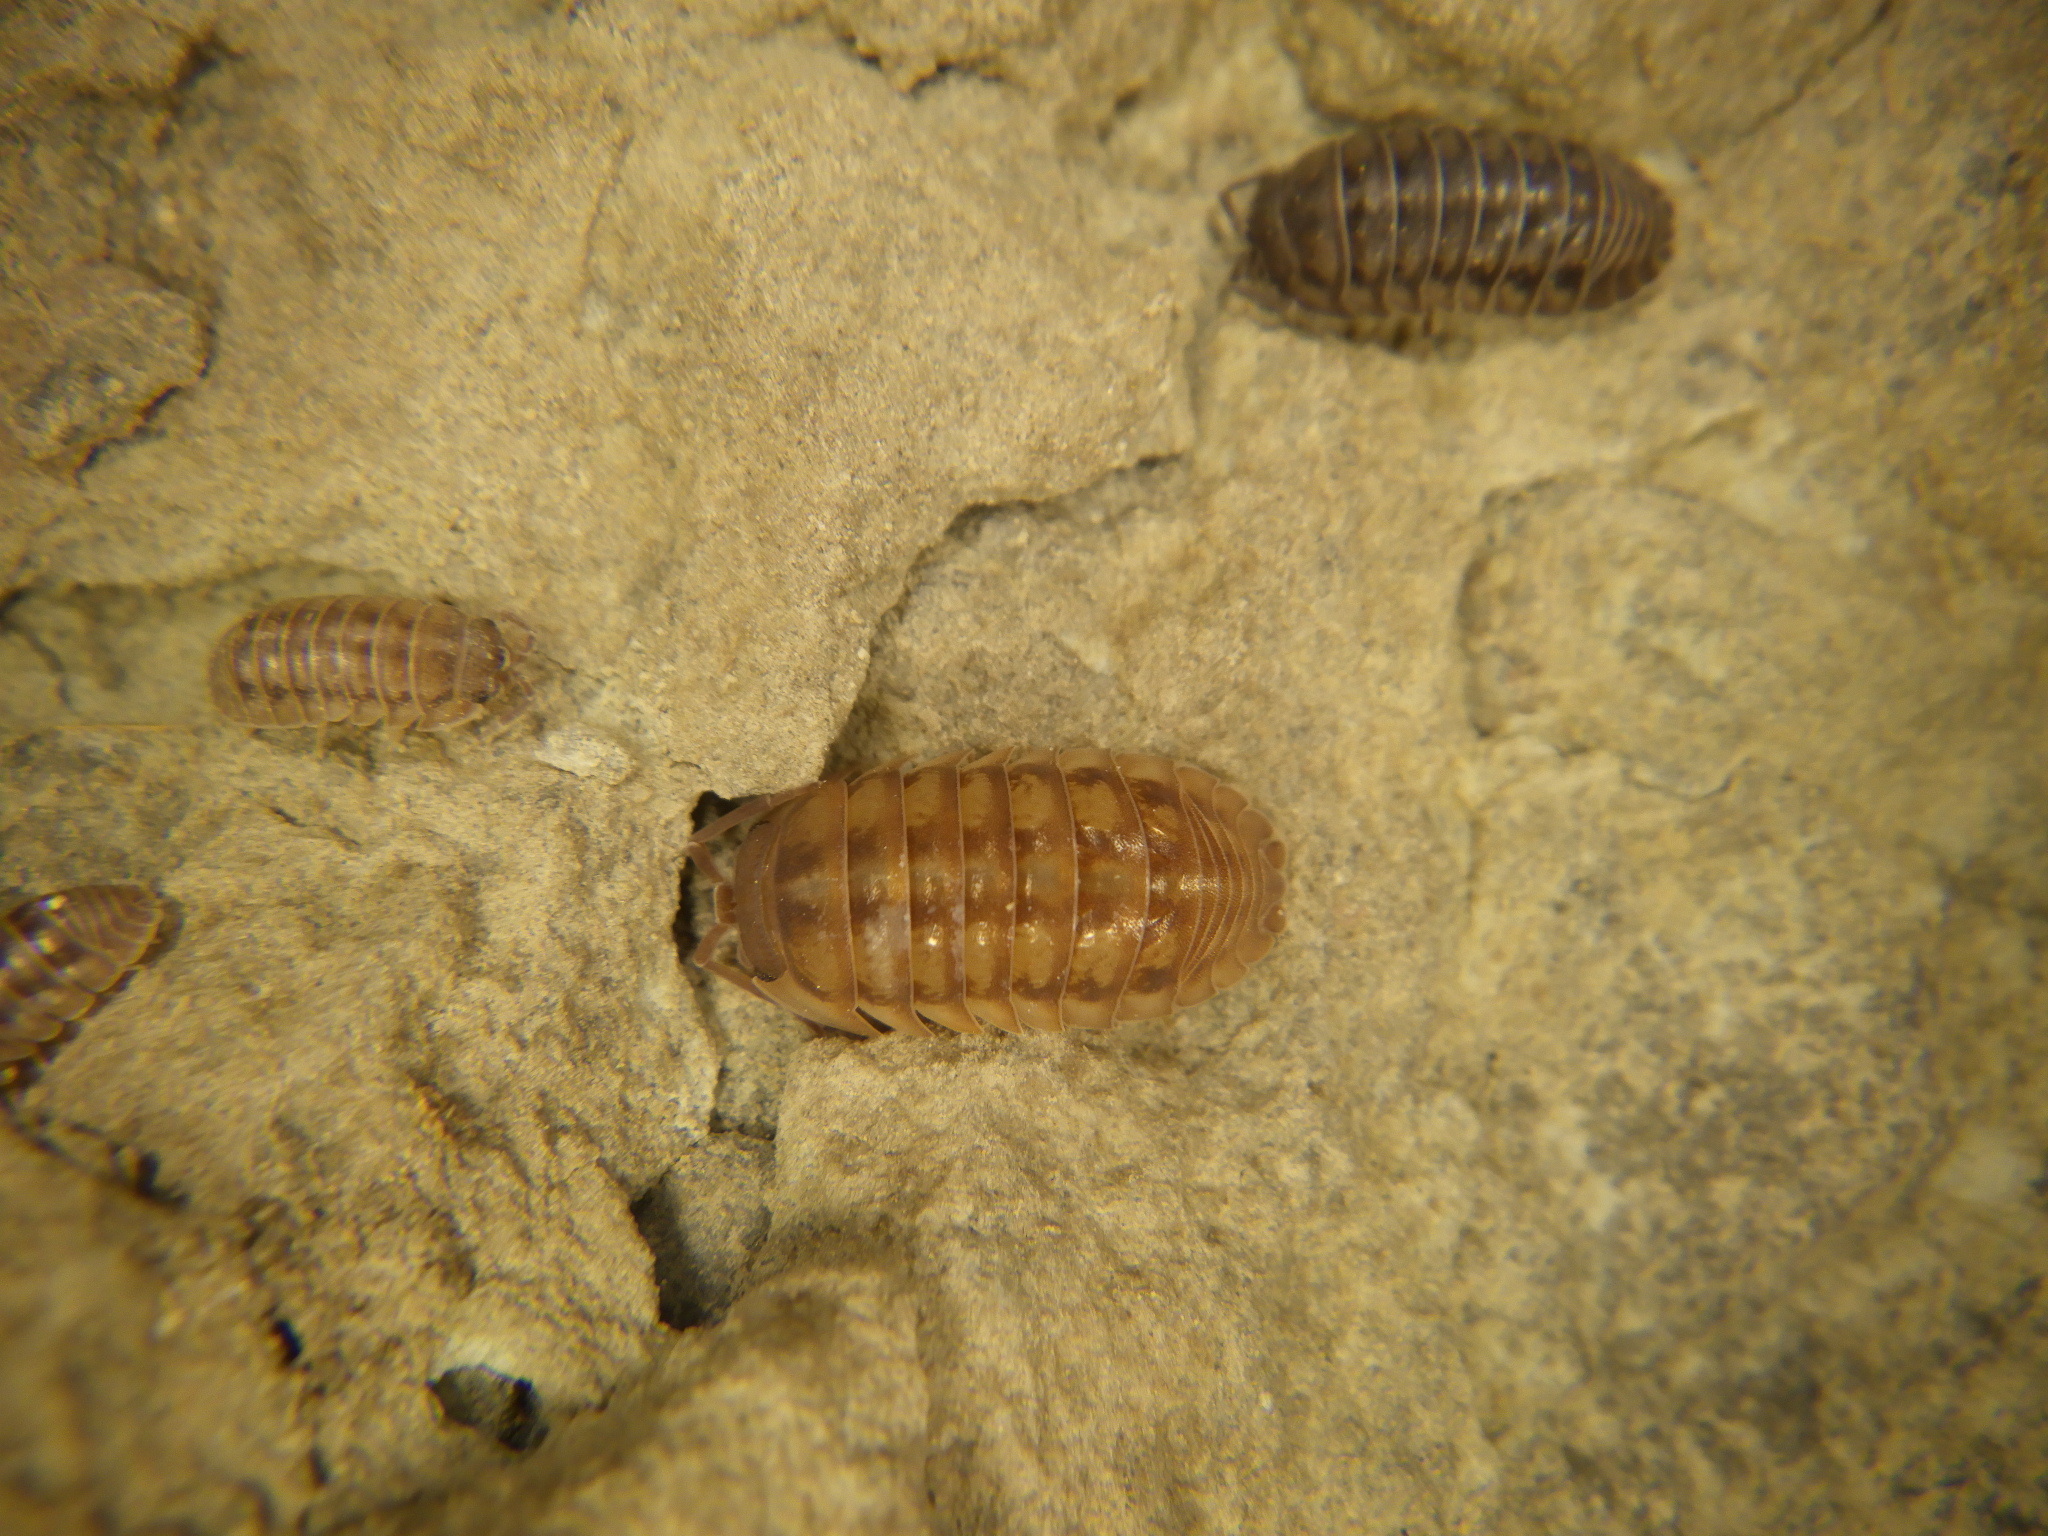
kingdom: Animalia
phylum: Arthropoda
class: Malacostraca
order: Isopoda
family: Armadillidiidae
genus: Armadillidium
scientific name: Armadillidium nasatum
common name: Isopod
